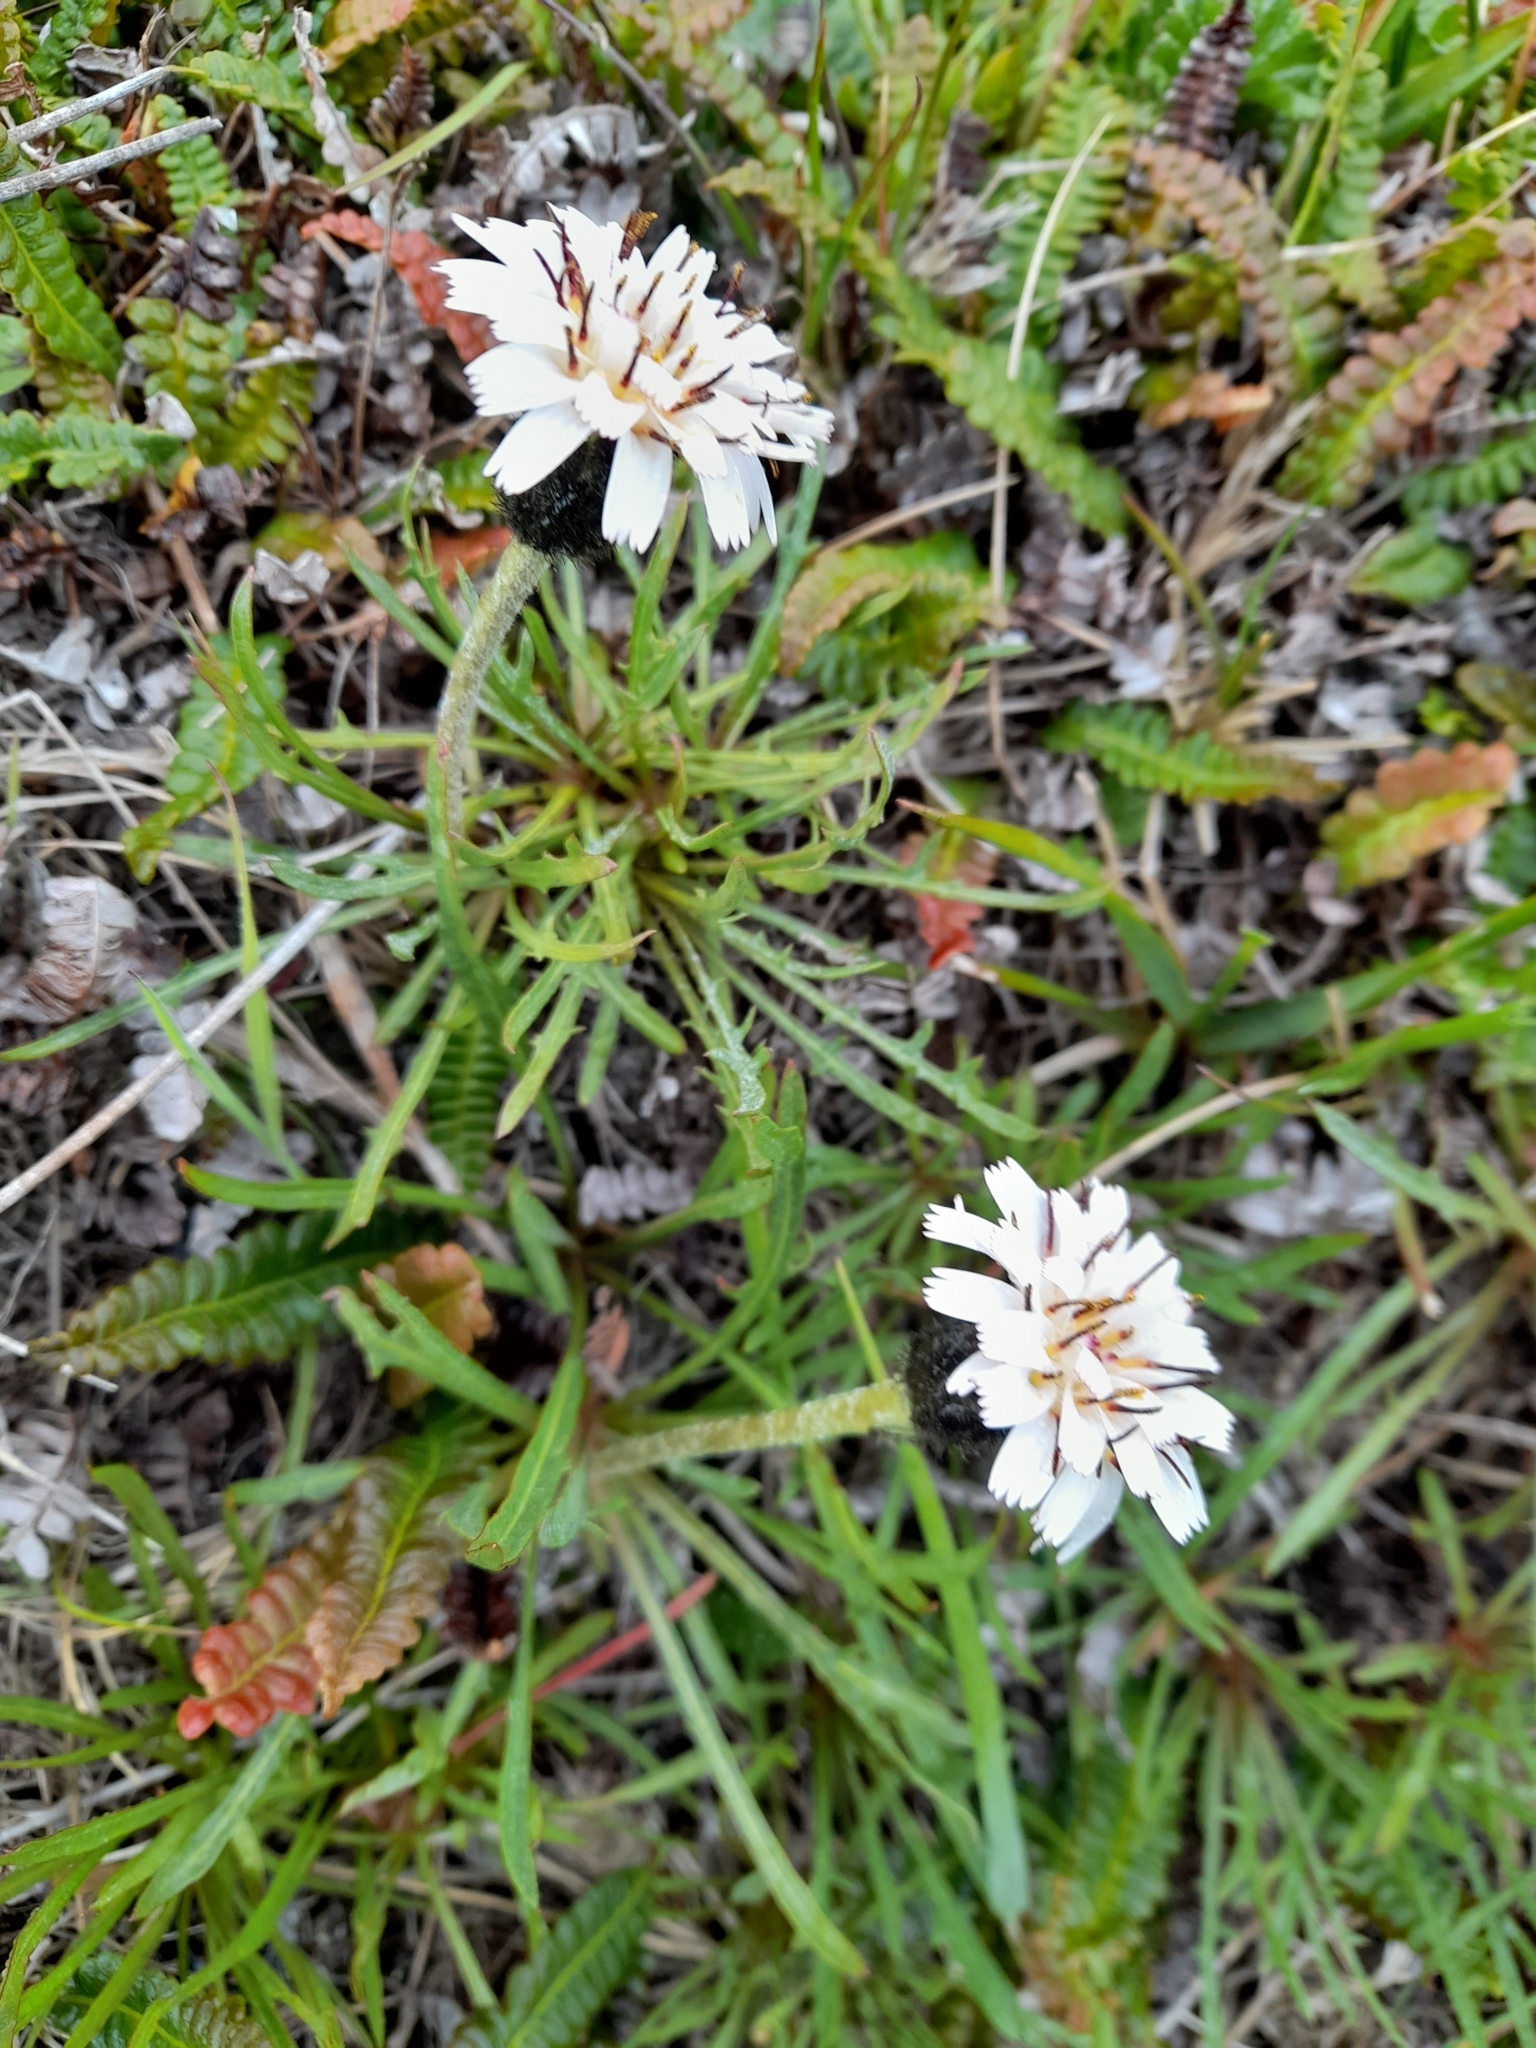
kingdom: Plantae
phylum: Tracheophyta
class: Magnoliopsida
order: Asterales
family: Asteraceae
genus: Hypochaeris
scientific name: Hypochaeris incana
